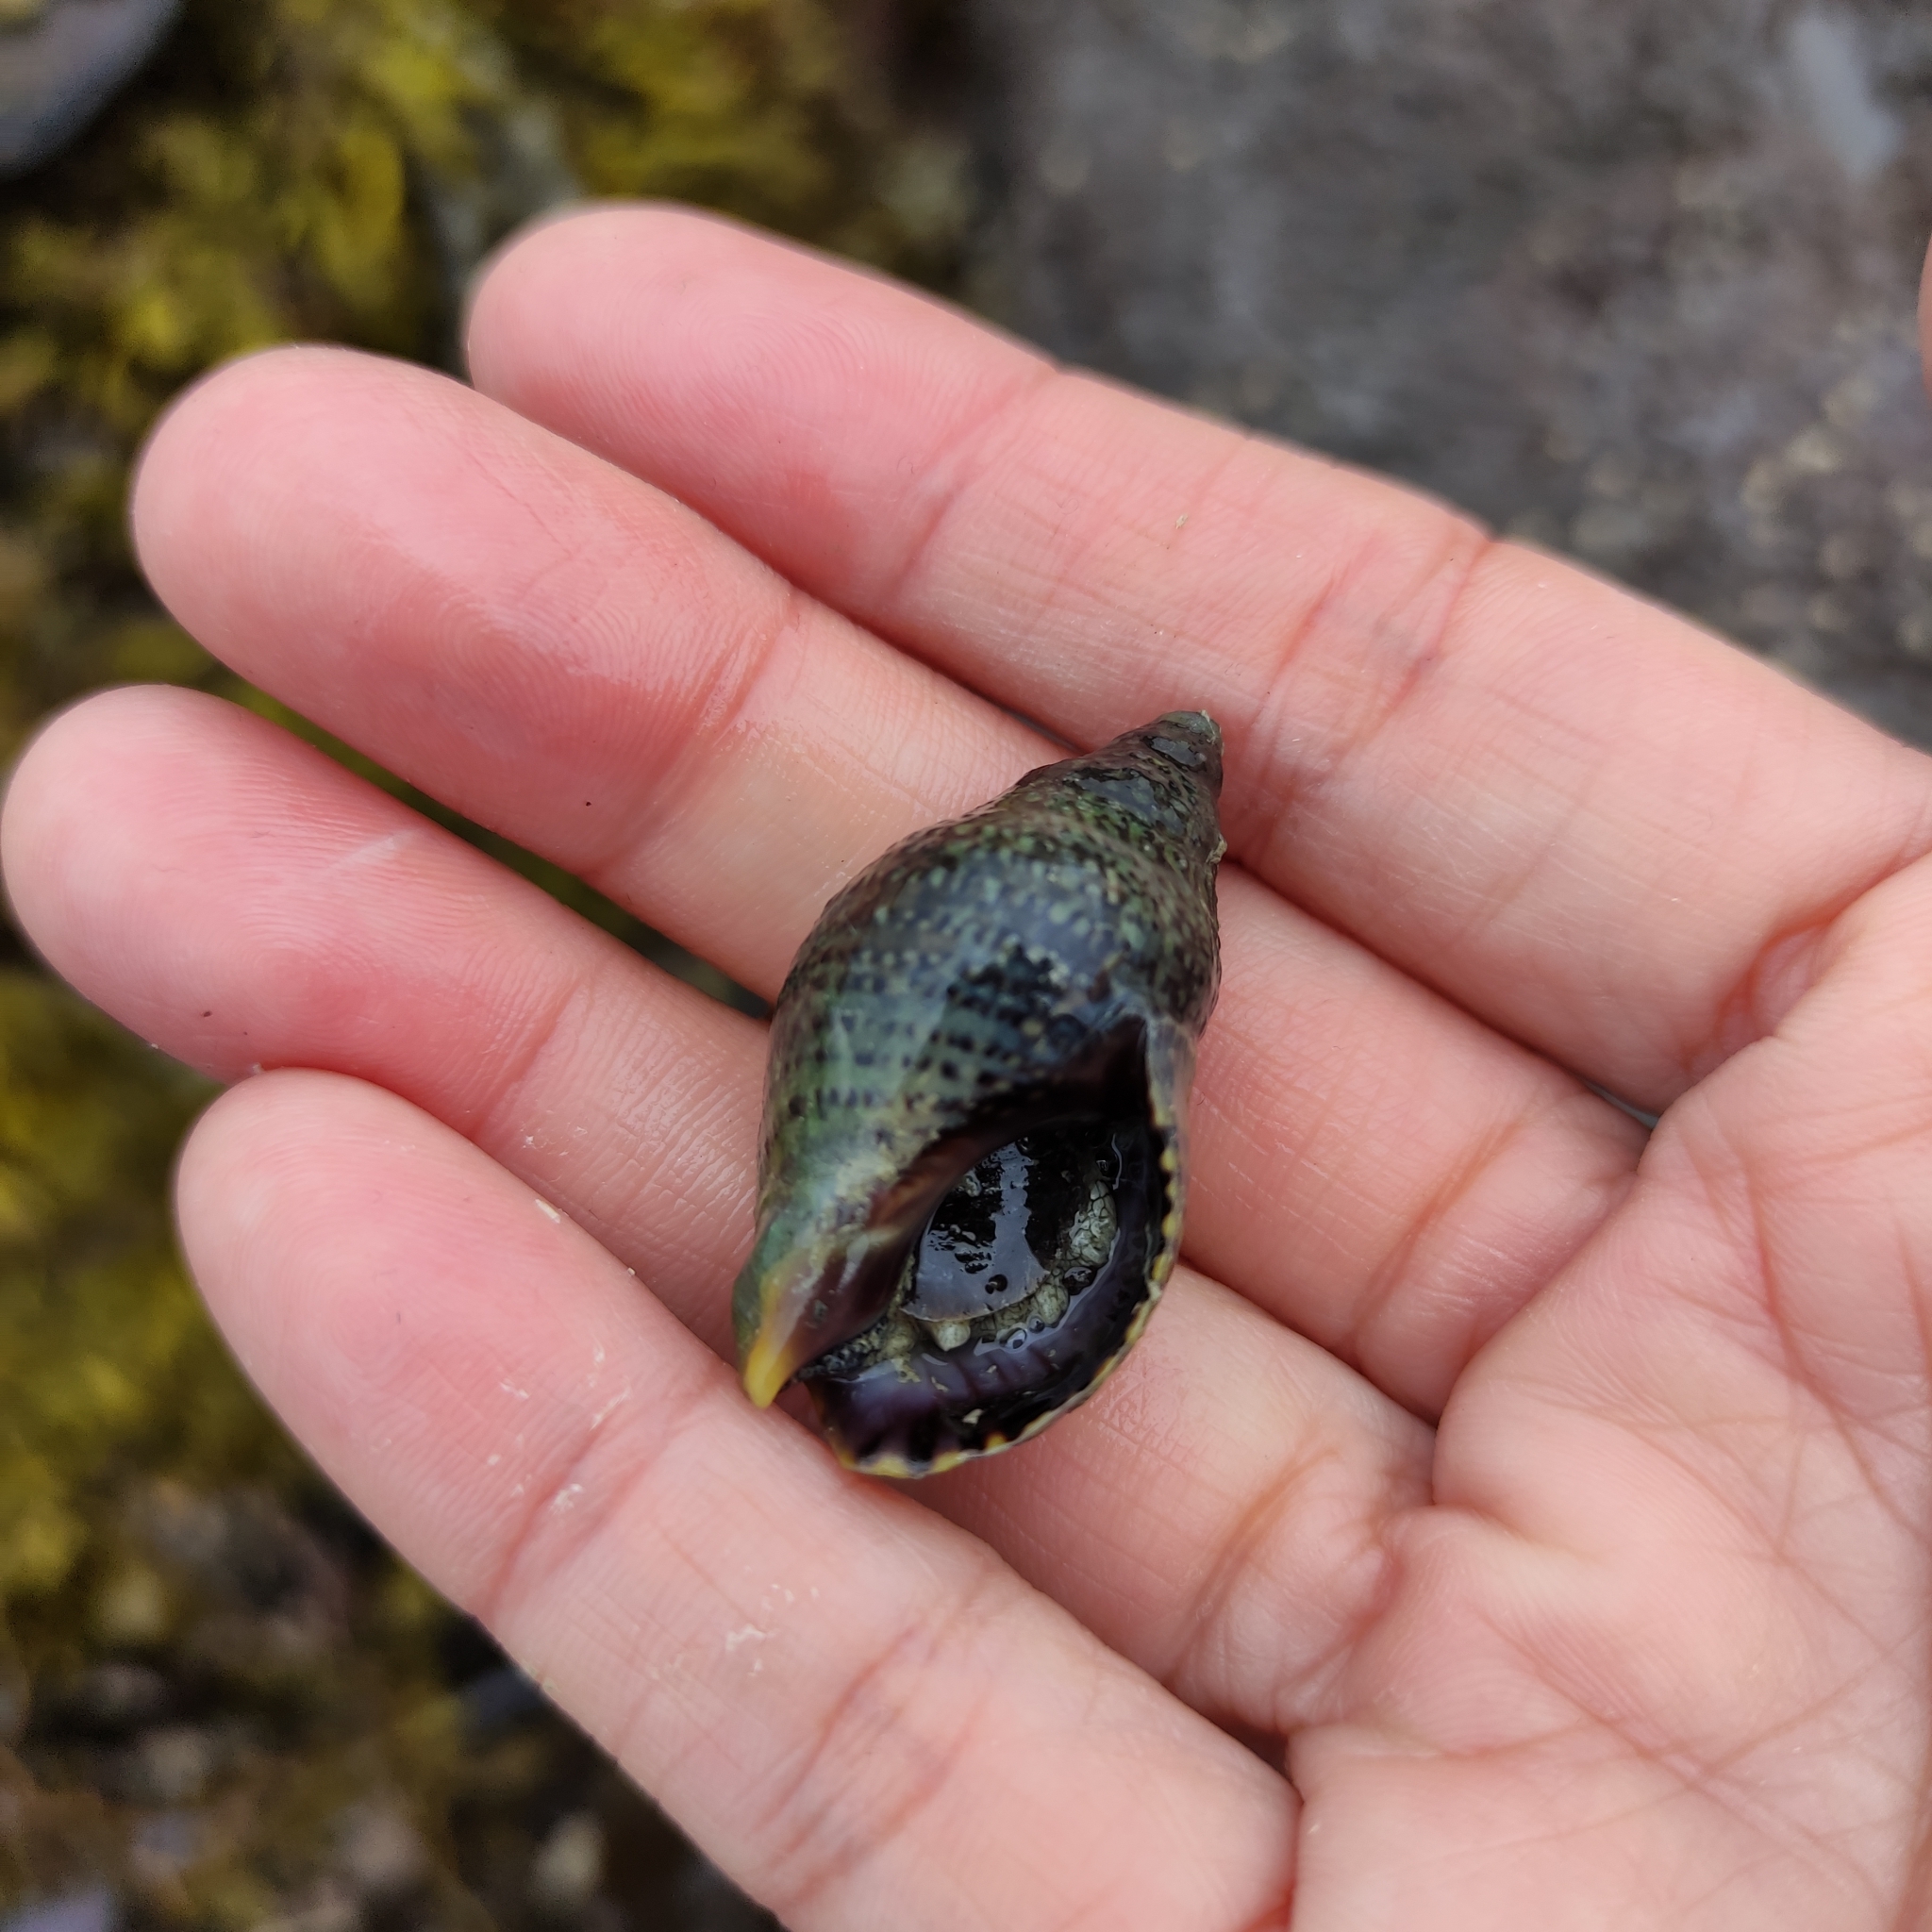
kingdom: Animalia
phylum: Mollusca
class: Gastropoda
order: Neogastropoda
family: Cominellidae
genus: Cominella
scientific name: Cominella maculosa
